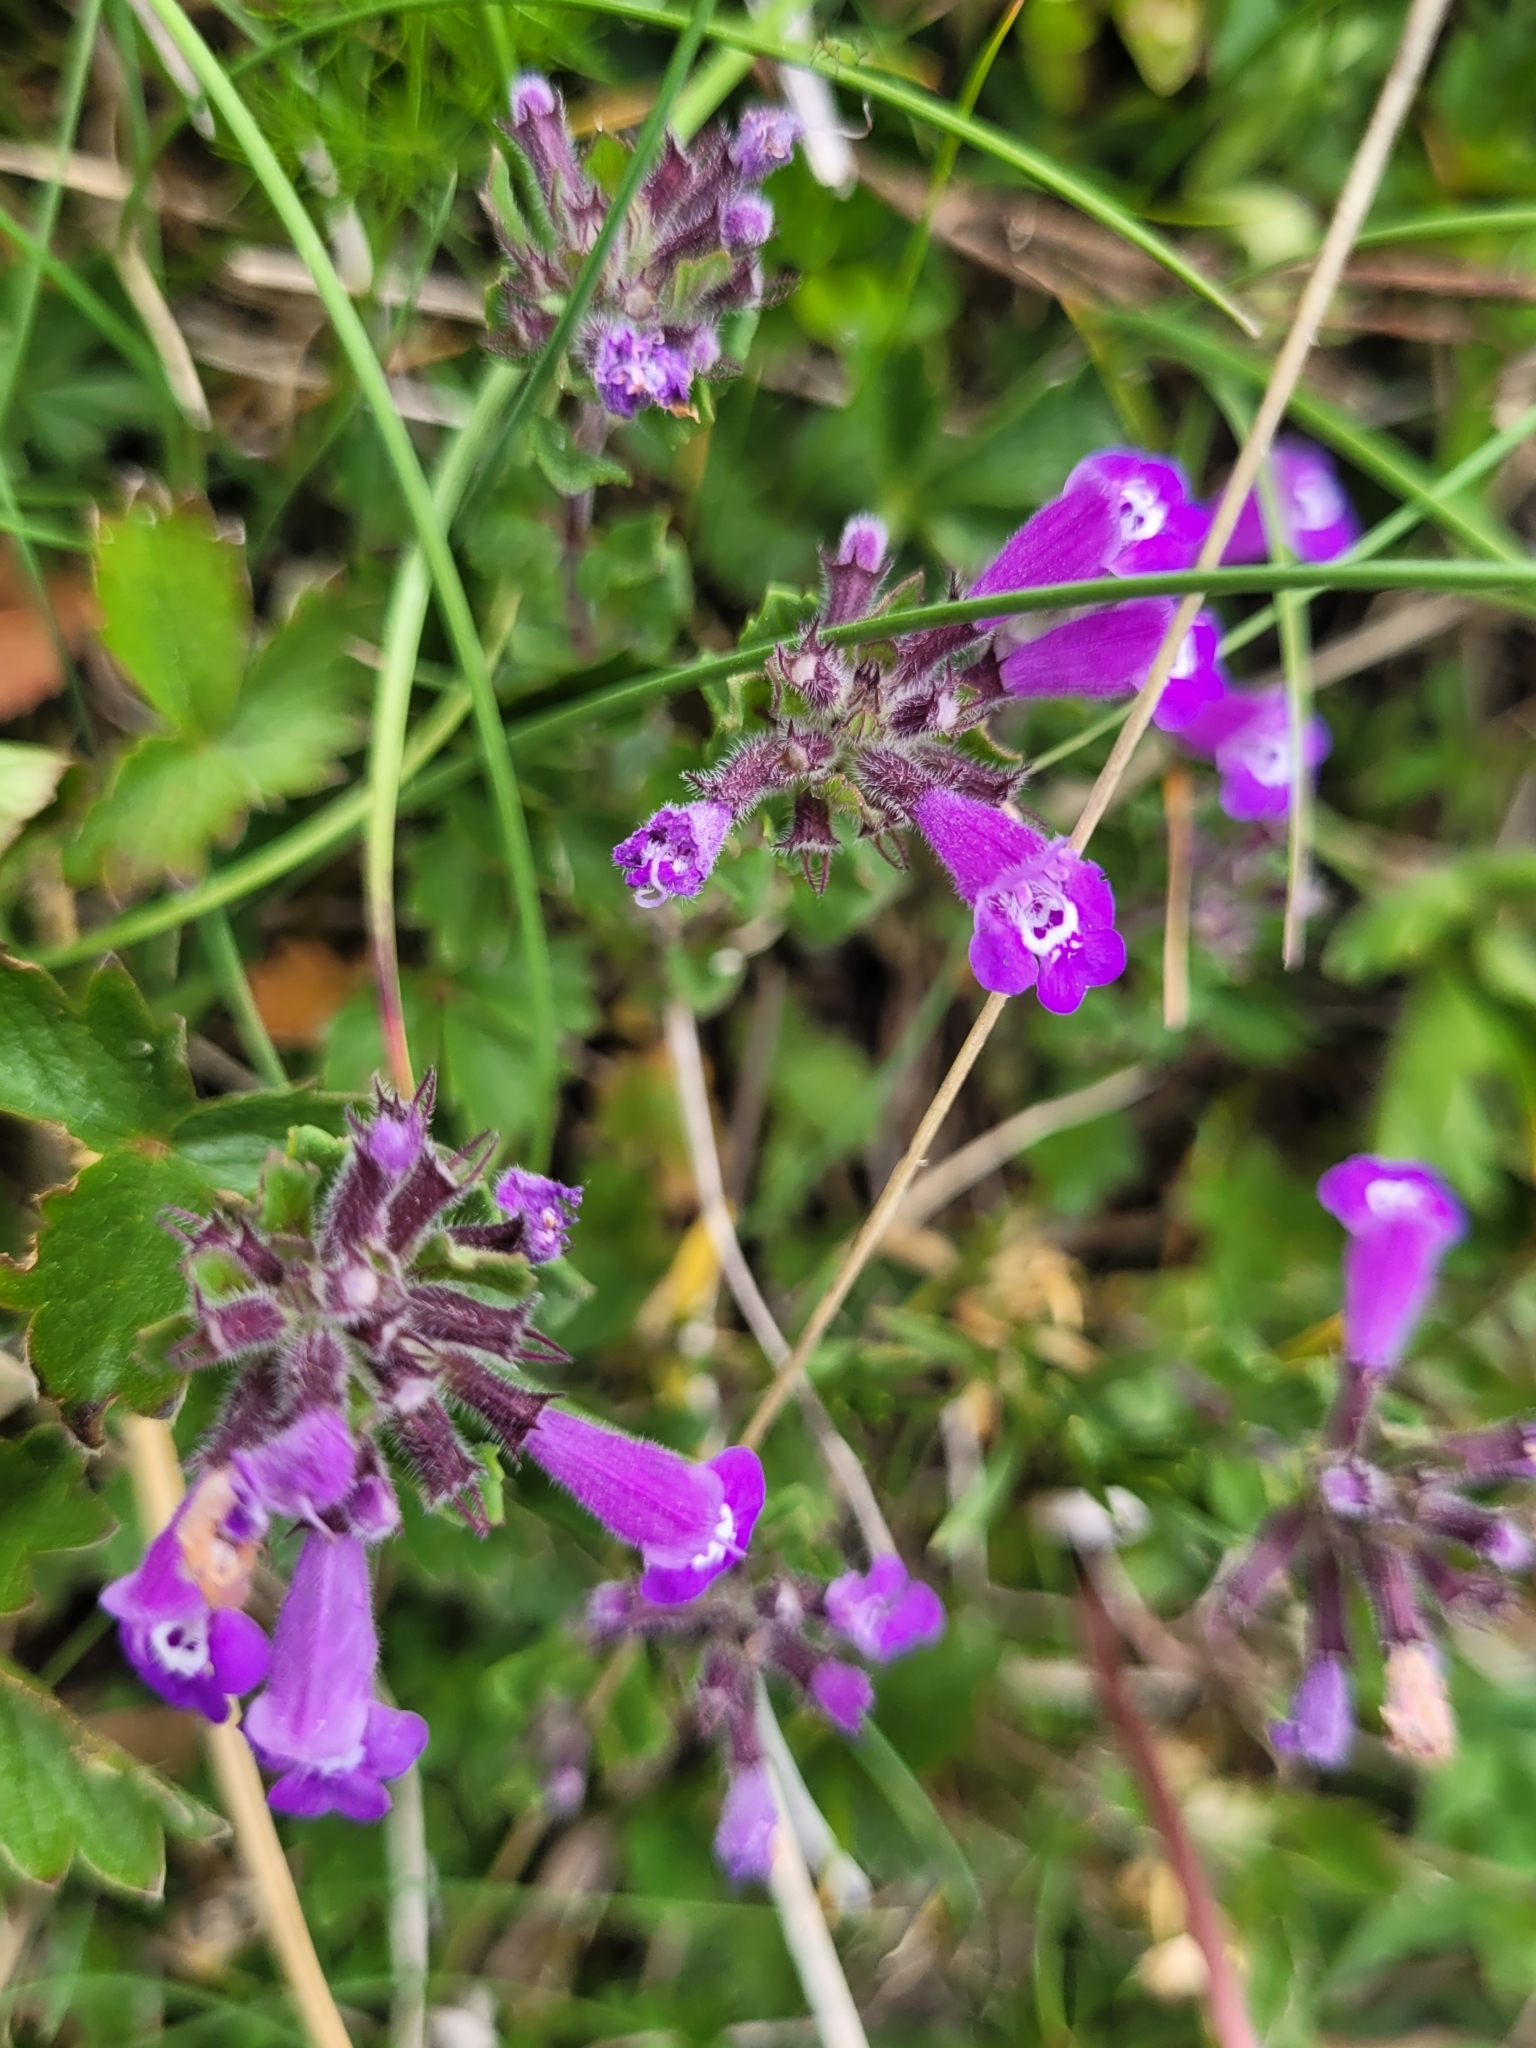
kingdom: Plantae
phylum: Tracheophyta
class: Magnoliopsida
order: Lamiales
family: Lamiaceae
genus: Clinopodium
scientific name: Clinopodium alpinum
